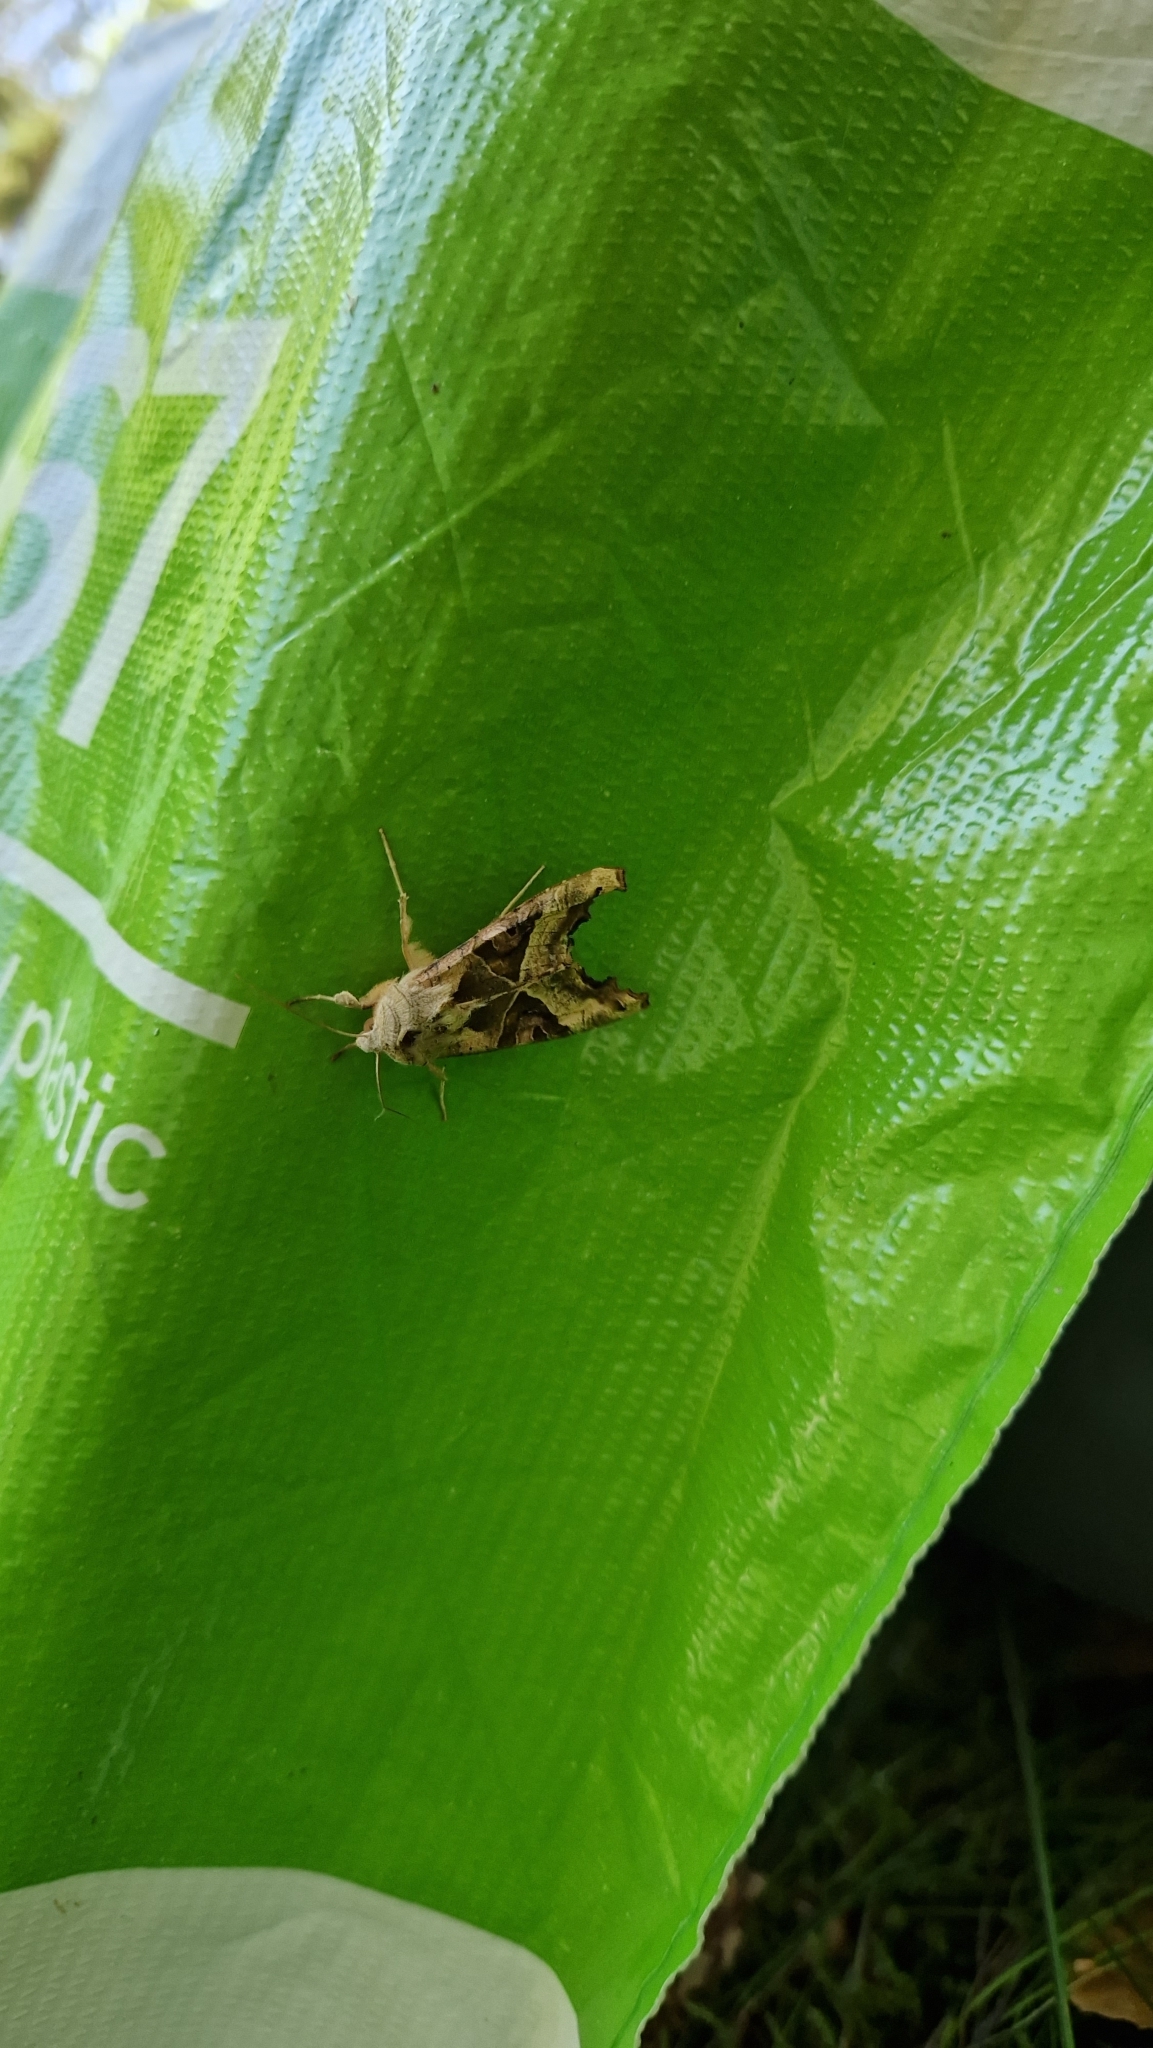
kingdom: Animalia
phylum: Arthropoda
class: Insecta
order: Lepidoptera
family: Noctuidae
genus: Phlogophora
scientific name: Phlogophora meticulosa
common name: Angle shades
